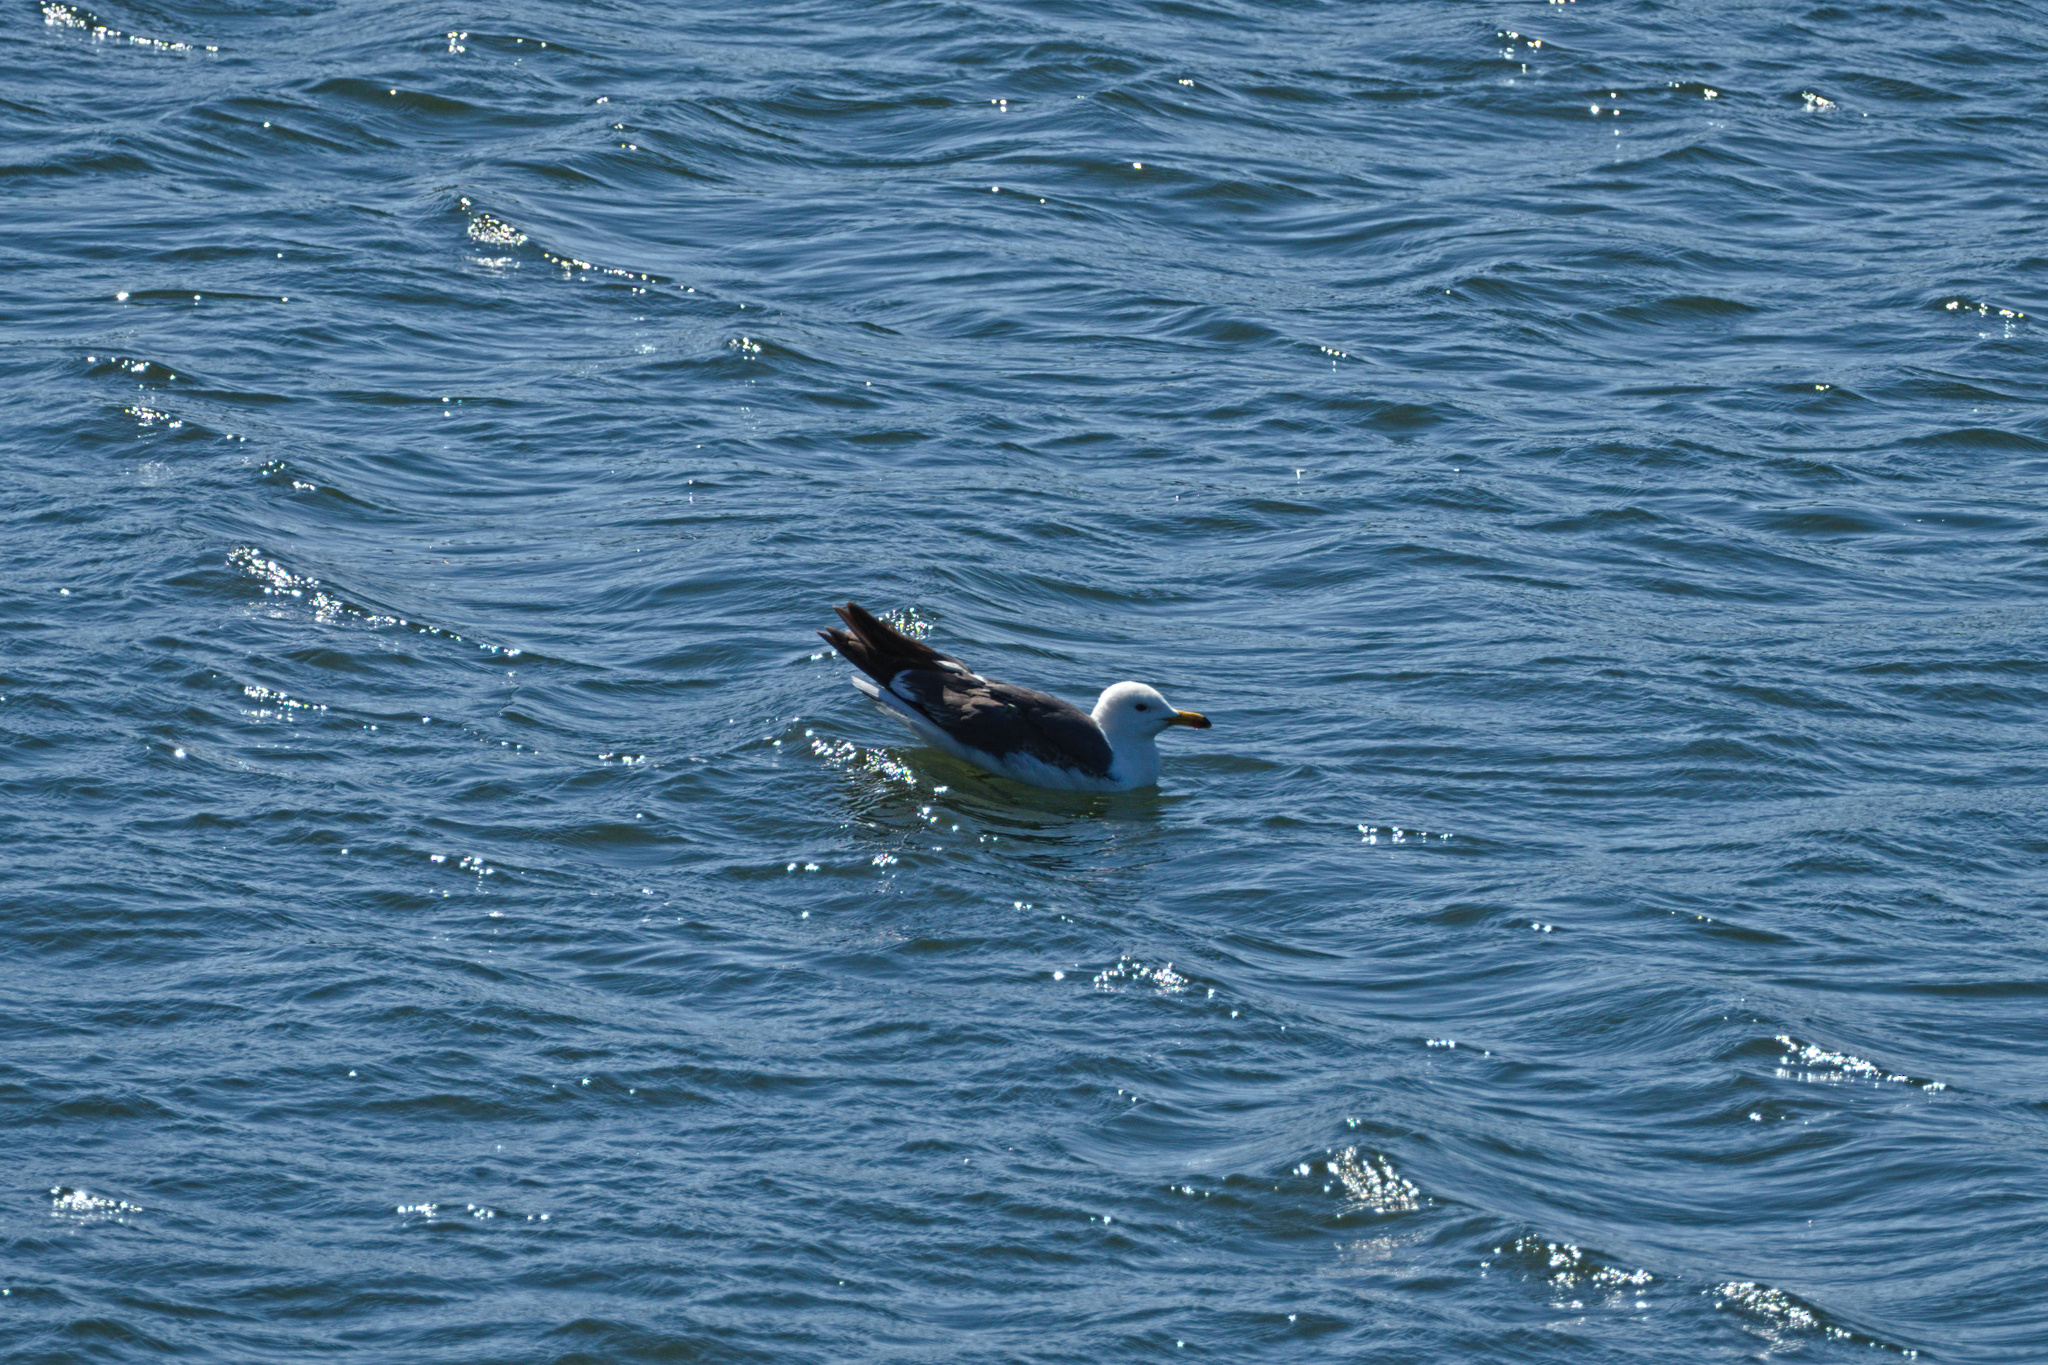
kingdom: Animalia
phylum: Chordata
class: Aves
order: Charadriiformes
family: Laridae
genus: Larus
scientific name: Larus fuscus
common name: Lesser black-backed gull
